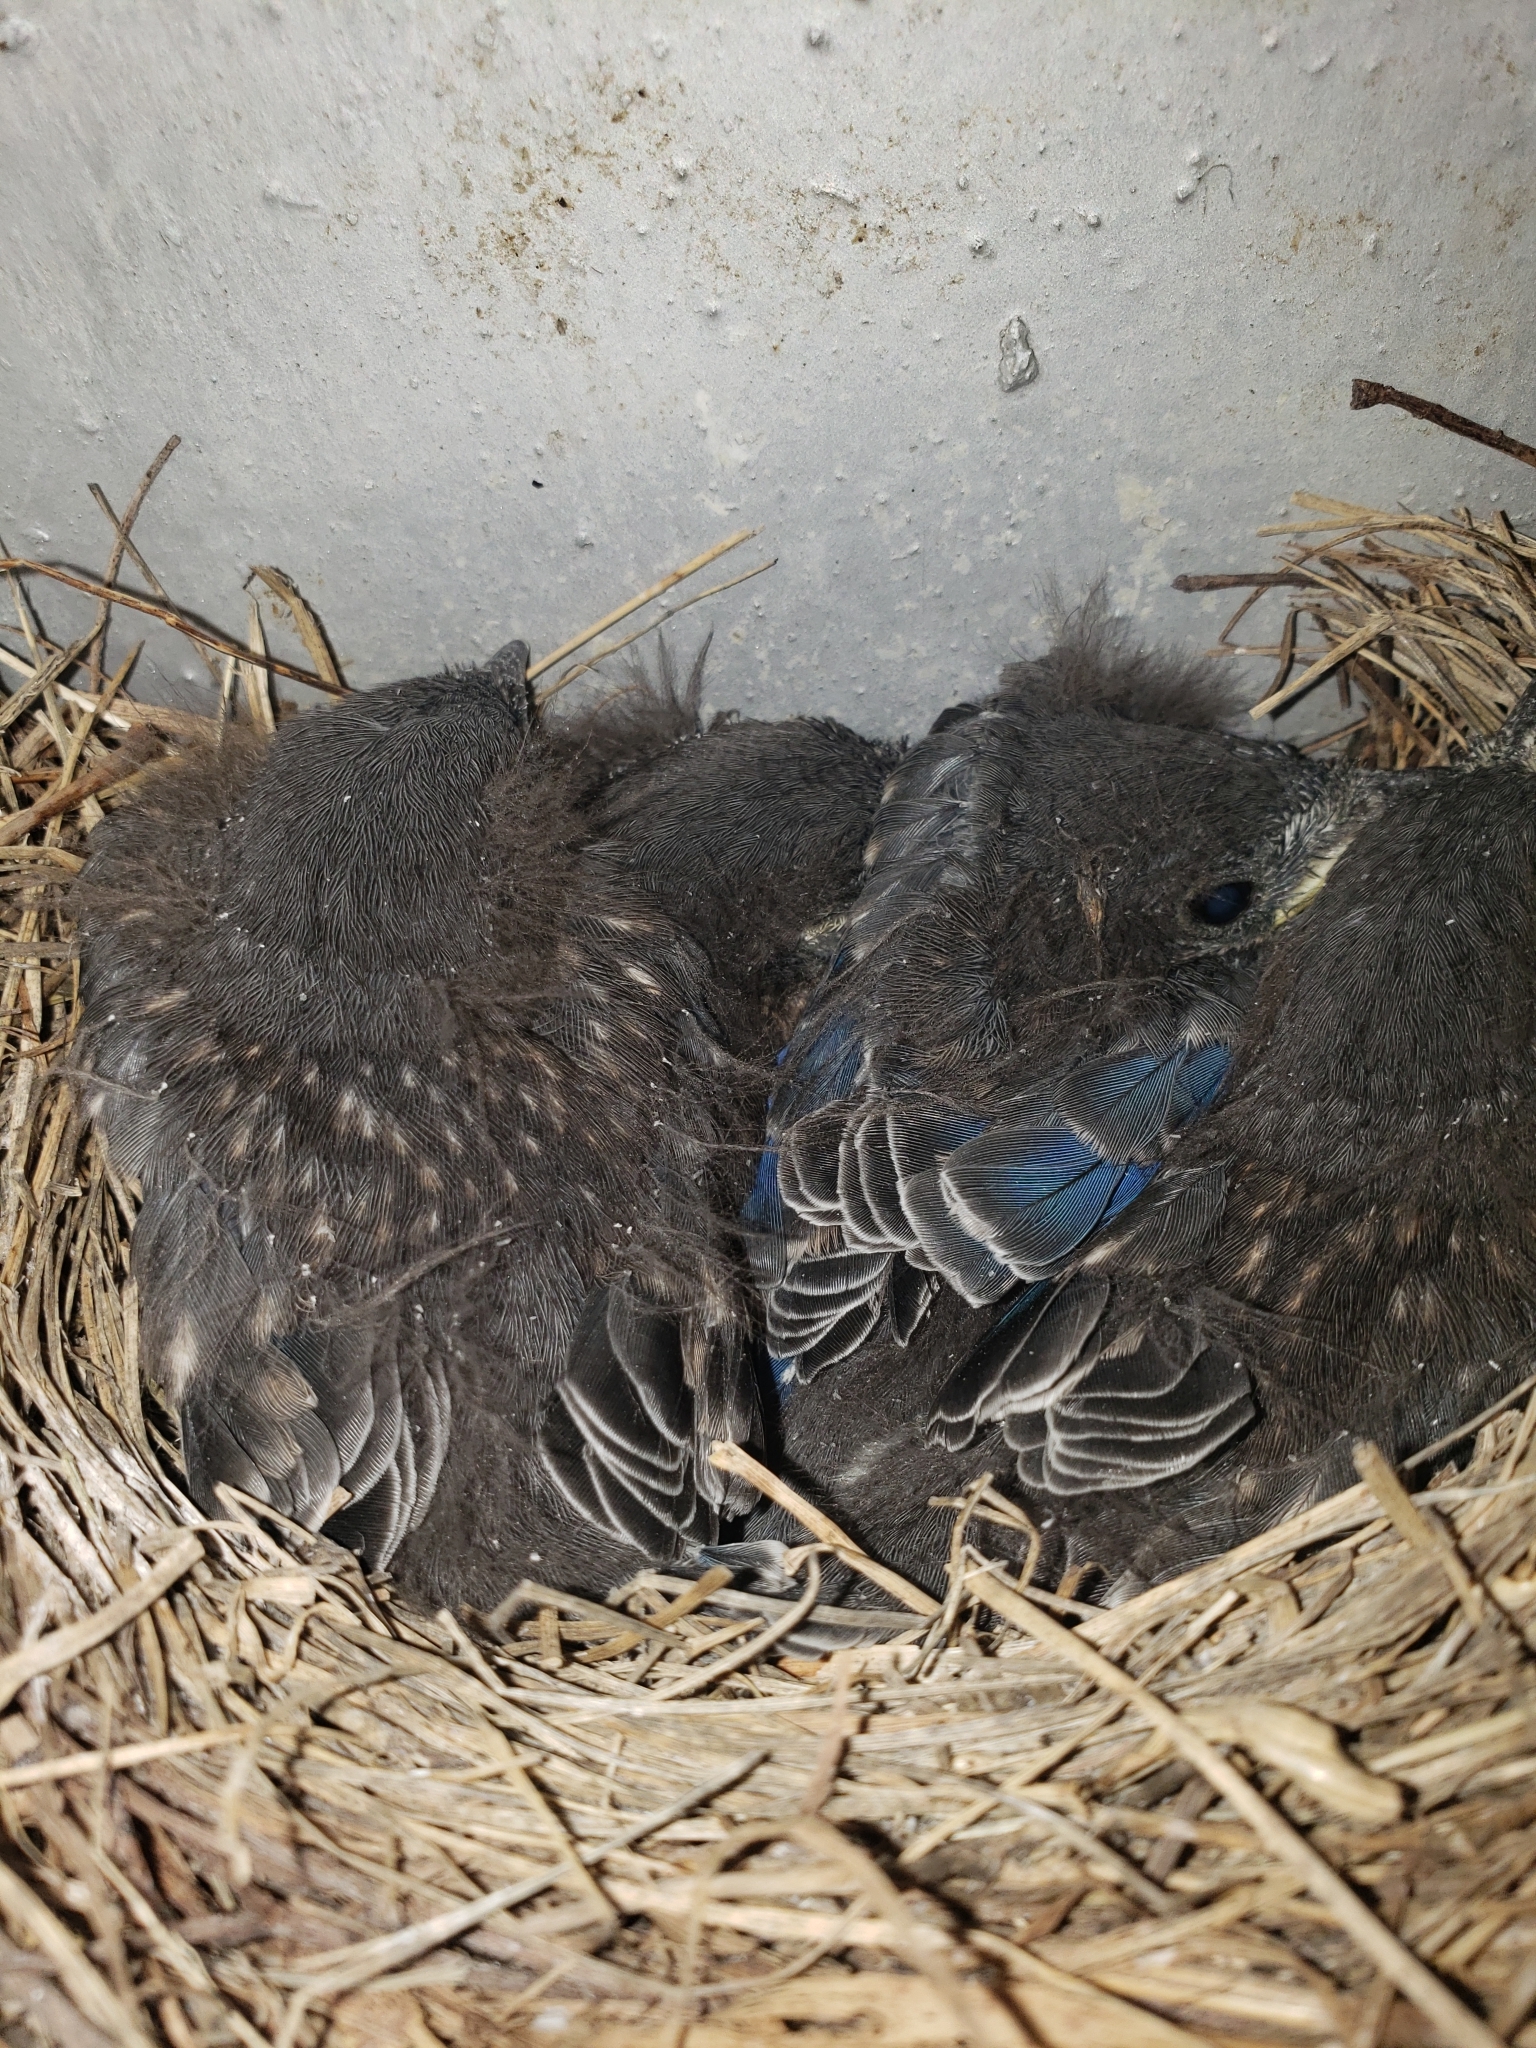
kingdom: Animalia
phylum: Chordata
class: Aves
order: Passeriformes
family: Turdidae
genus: Sialia
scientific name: Sialia sialis
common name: Eastern bluebird
